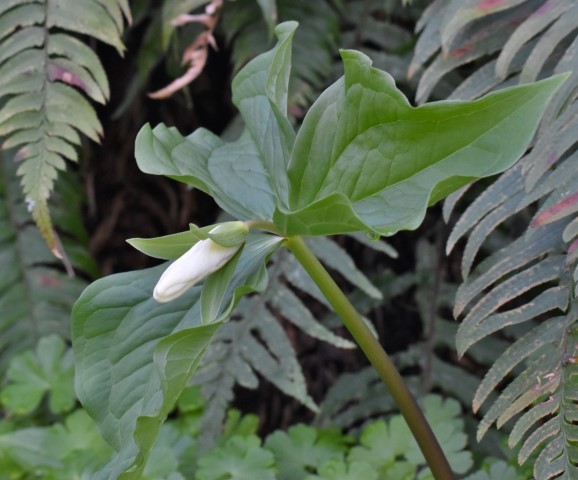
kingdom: Plantae
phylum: Tracheophyta
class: Liliopsida
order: Liliales
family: Melanthiaceae
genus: Trillium
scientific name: Trillium ovatum
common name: Pacific trillium
